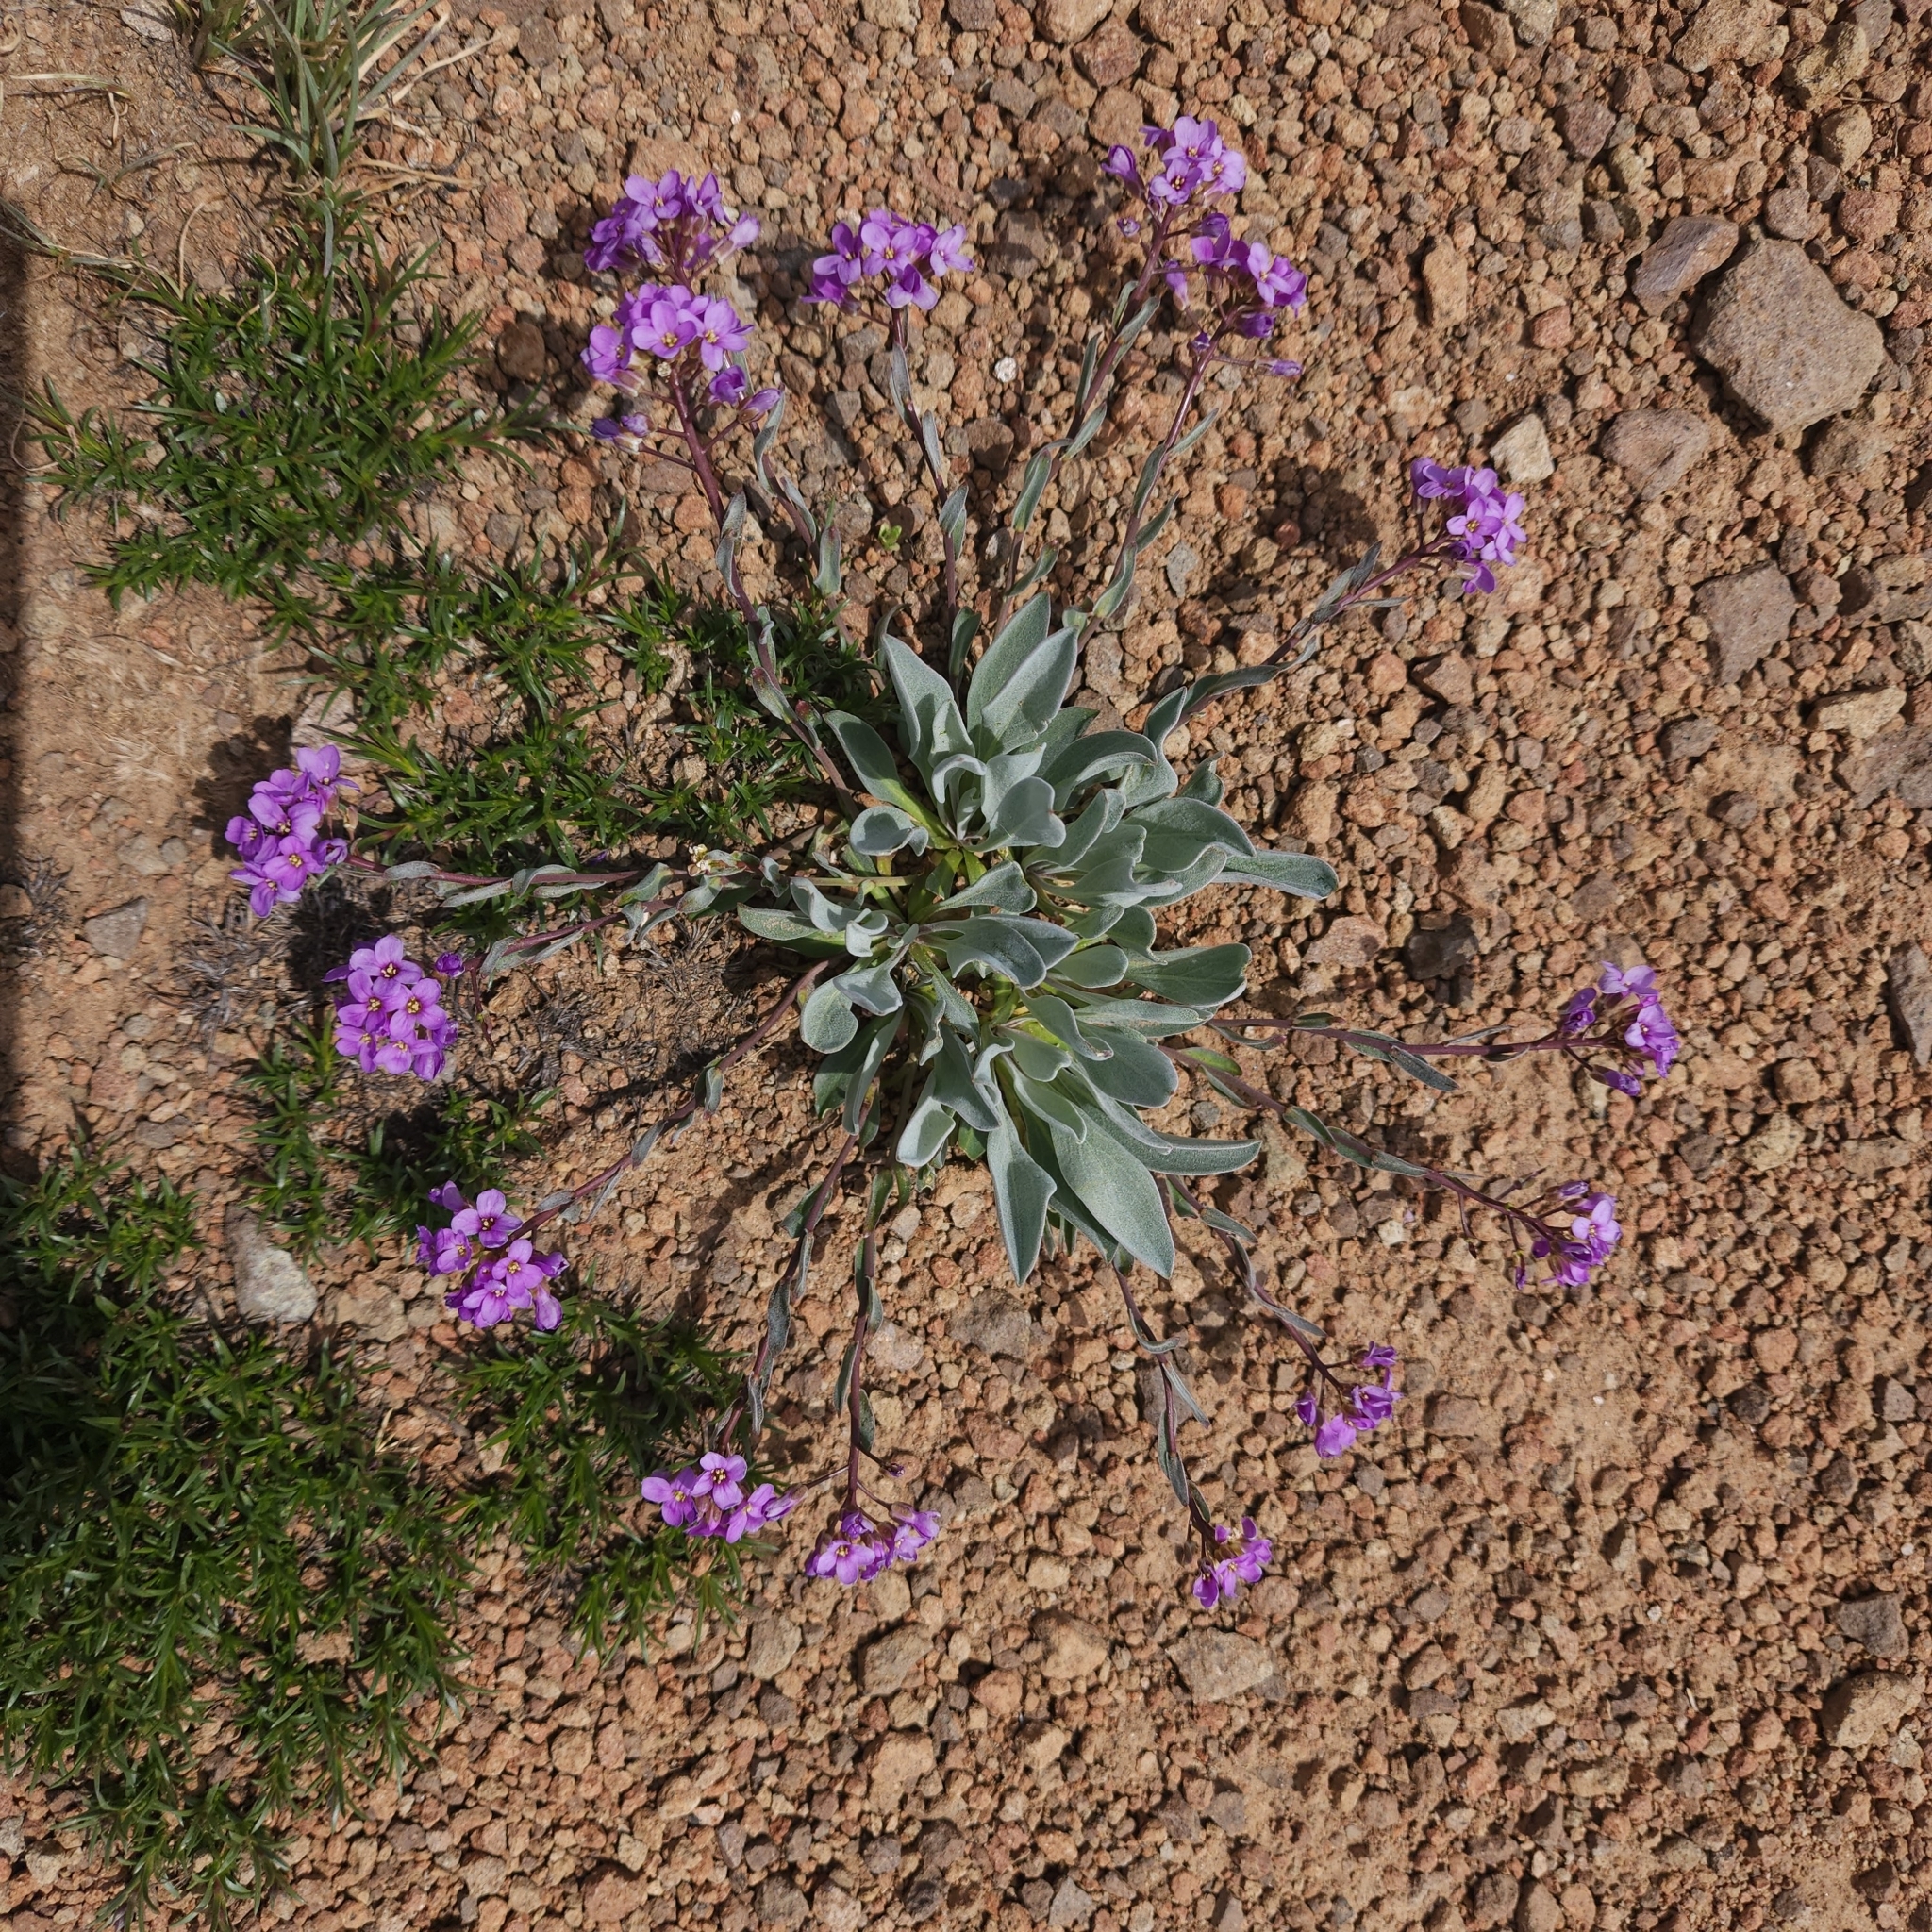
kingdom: Plantae
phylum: Tracheophyta
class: Magnoliopsida
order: Brassicales
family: Brassicaceae
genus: Phoenicaulis
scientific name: Phoenicaulis cheiranthoides
